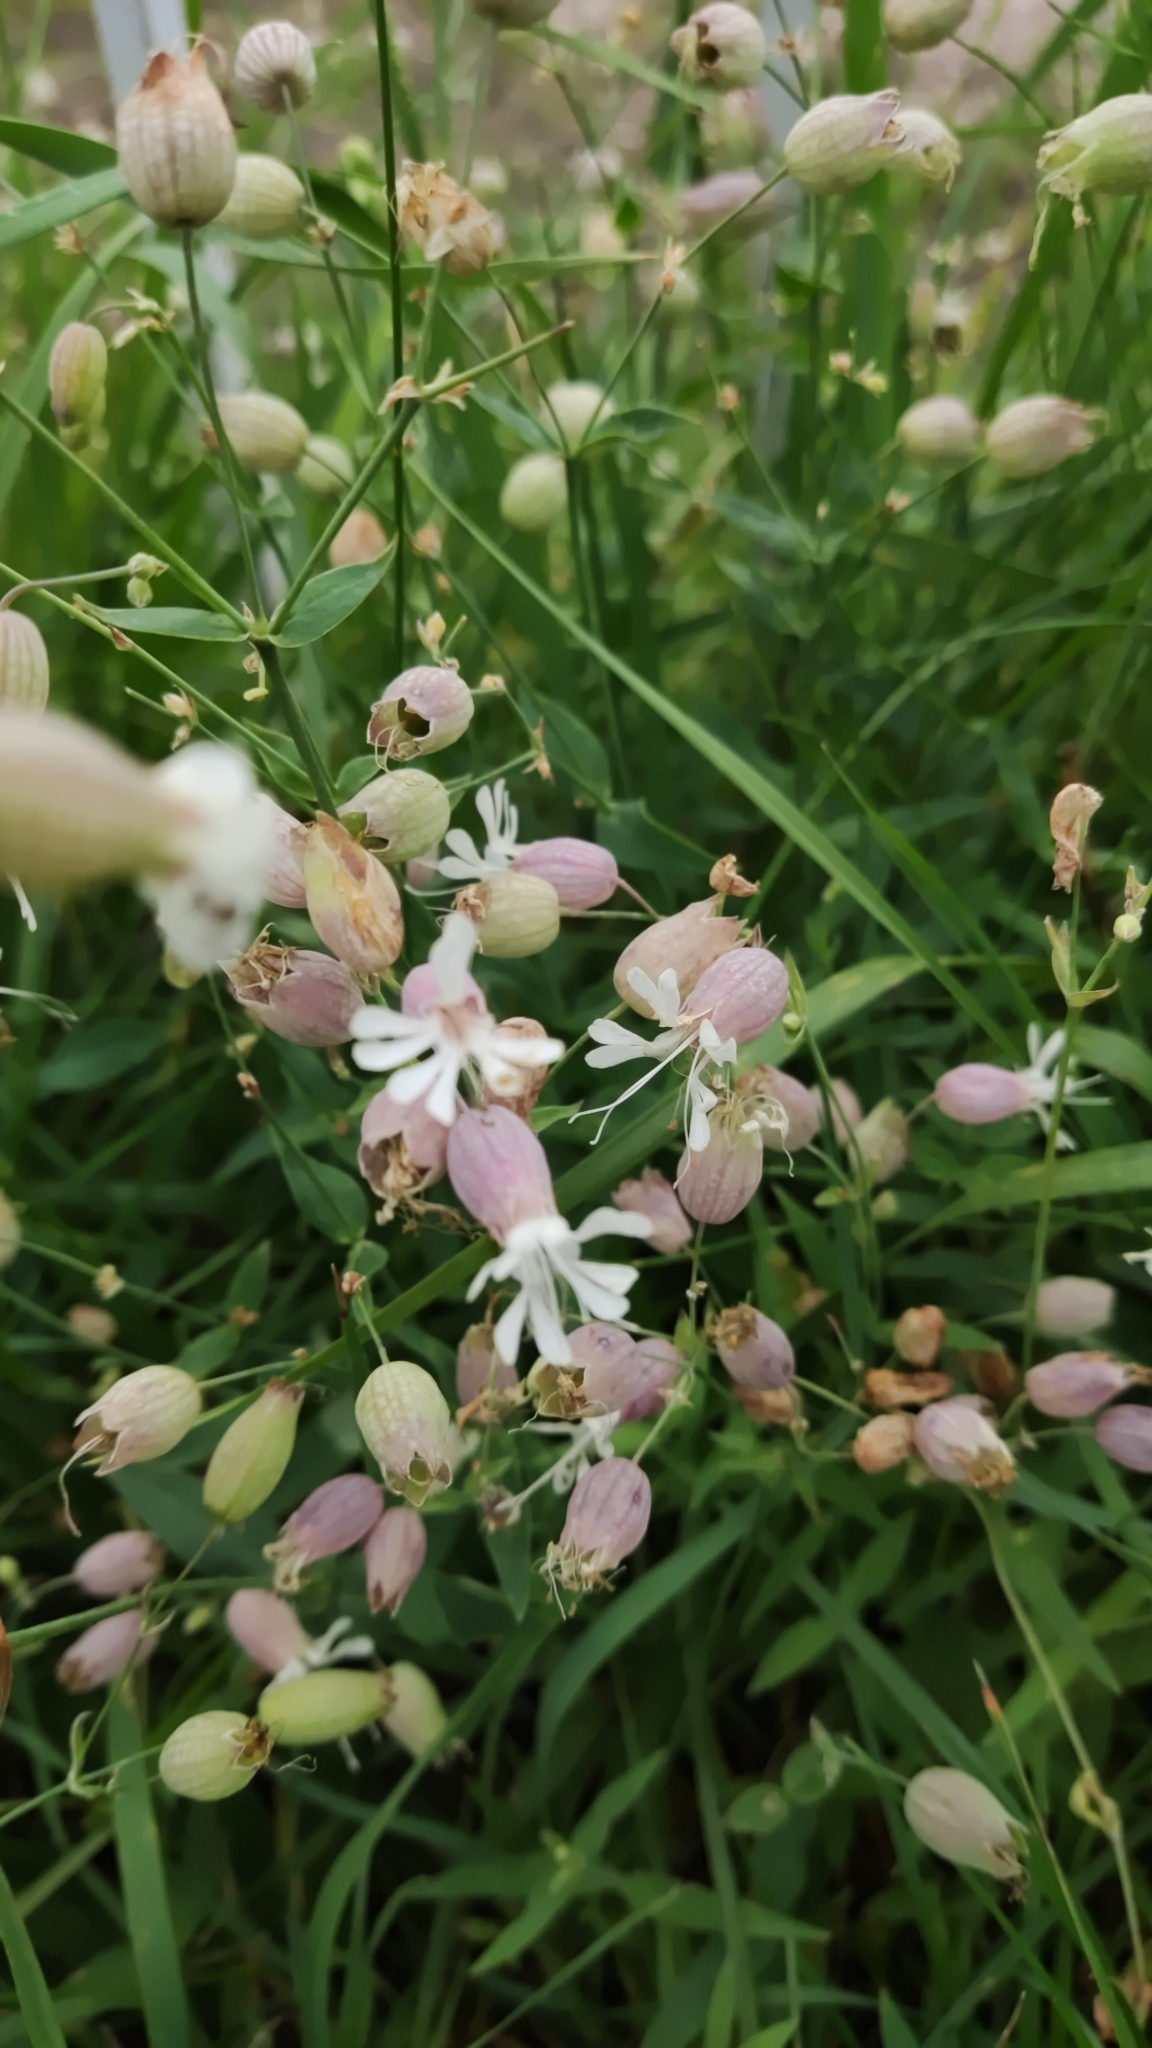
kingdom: Plantae
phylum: Tracheophyta
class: Magnoliopsida
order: Caryophyllales
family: Caryophyllaceae
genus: Silene
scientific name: Silene vulgaris
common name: Bladder campion
